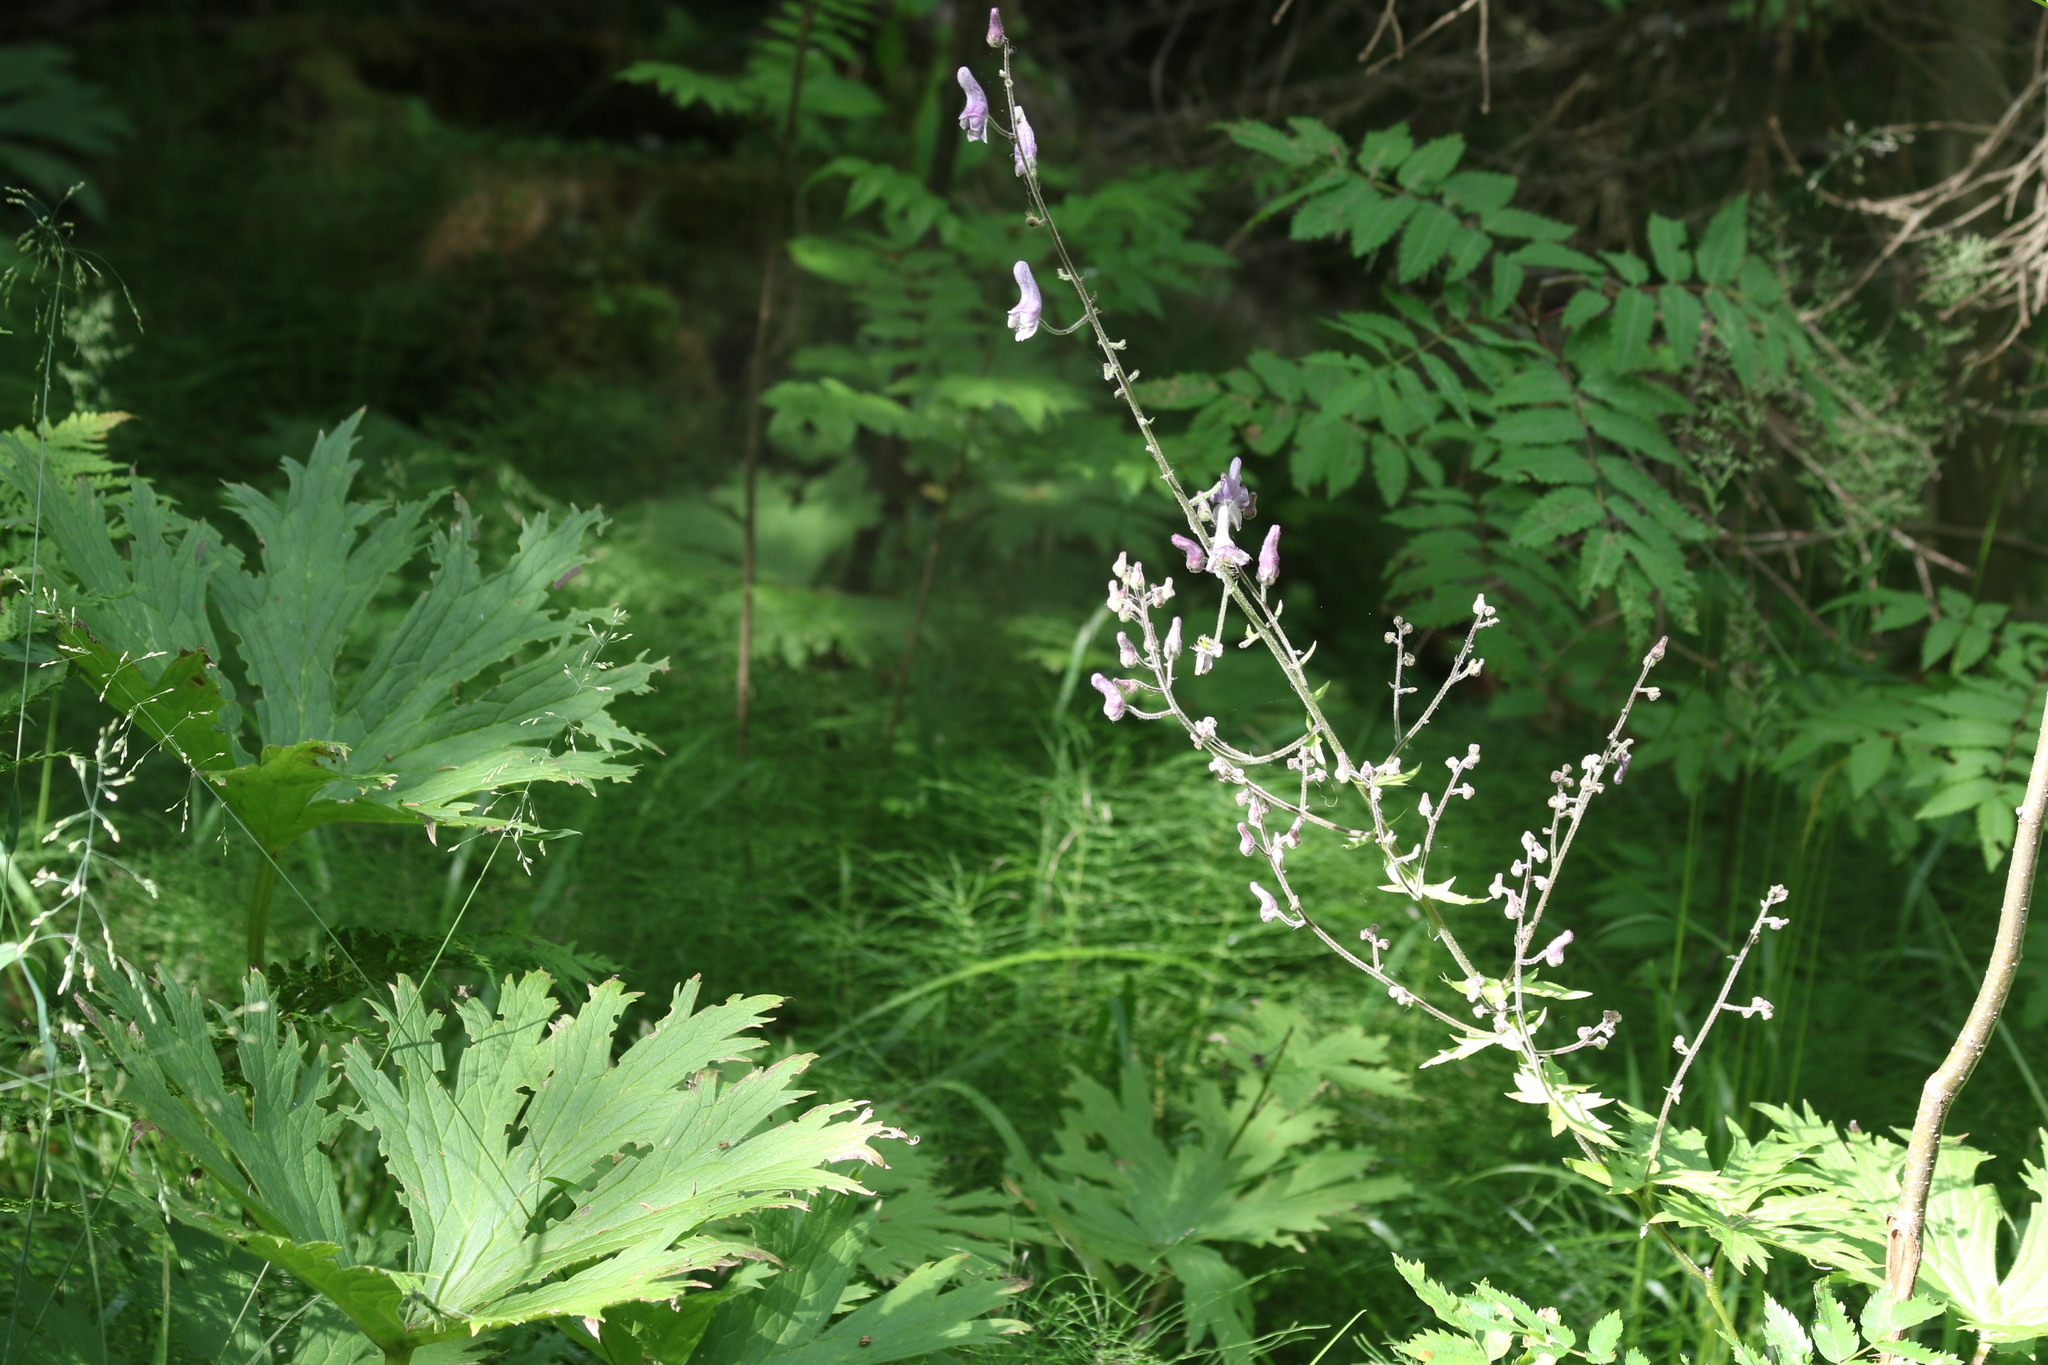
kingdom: Plantae
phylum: Tracheophyta
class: Magnoliopsida
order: Ranunculales
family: Ranunculaceae
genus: Aconitum
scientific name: Aconitum septentrionale
